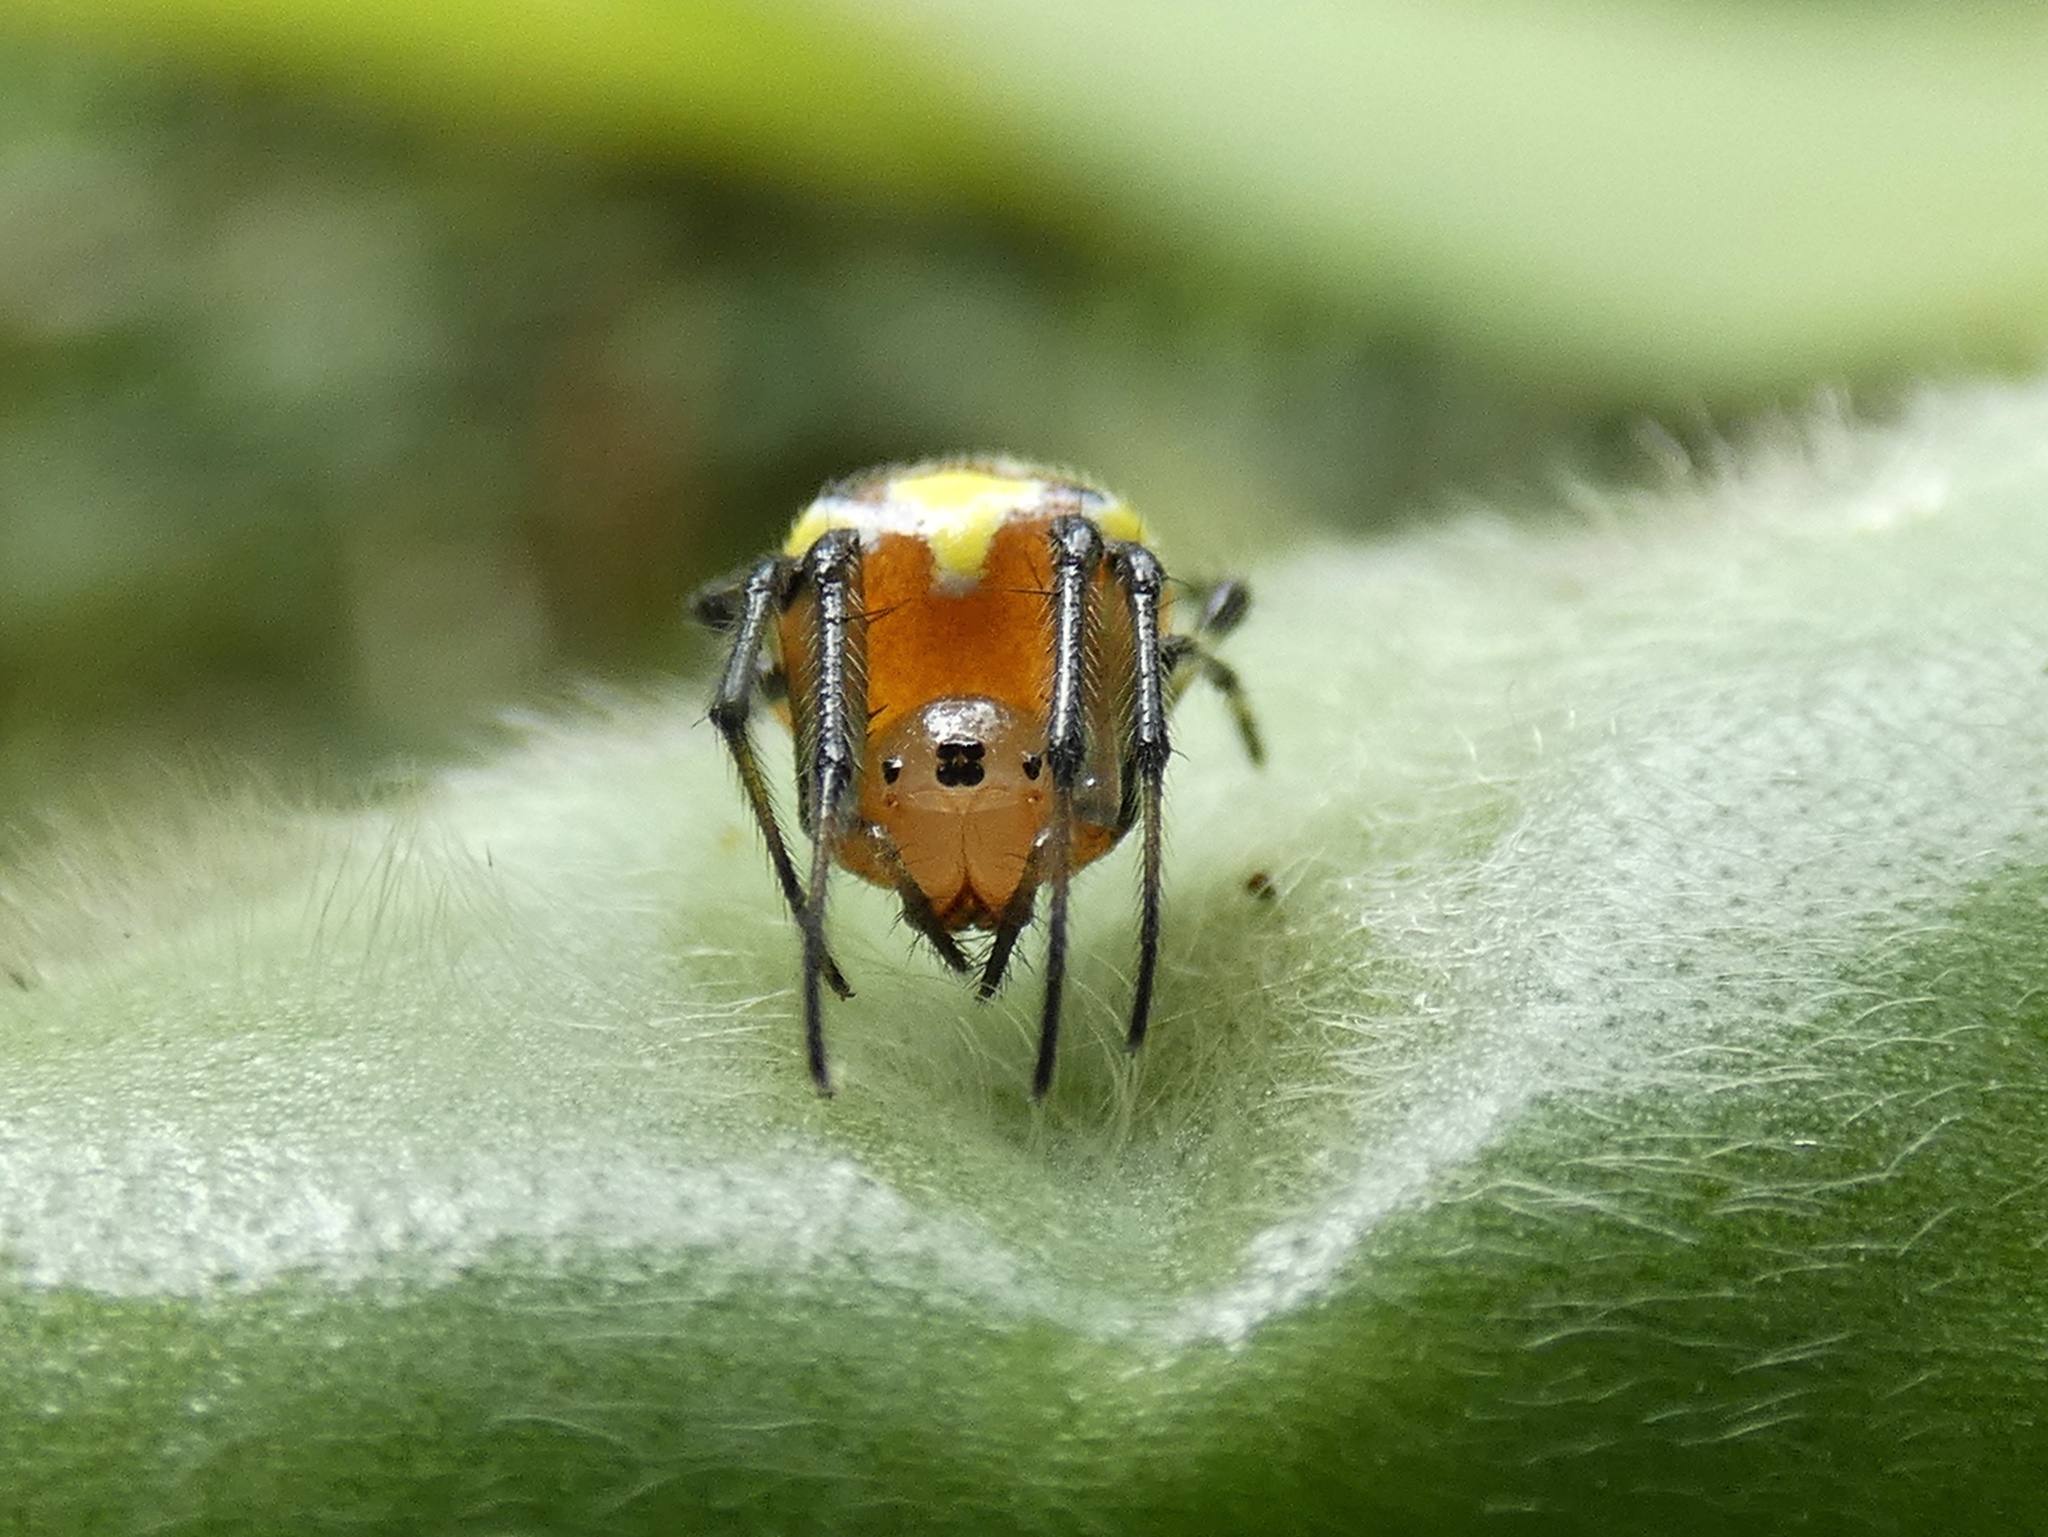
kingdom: Animalia
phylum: Arthropoda
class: Arachnida
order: Araneae
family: Araneidae
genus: Alpaida
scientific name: Alpaida tuonabo
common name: Orb weavers
